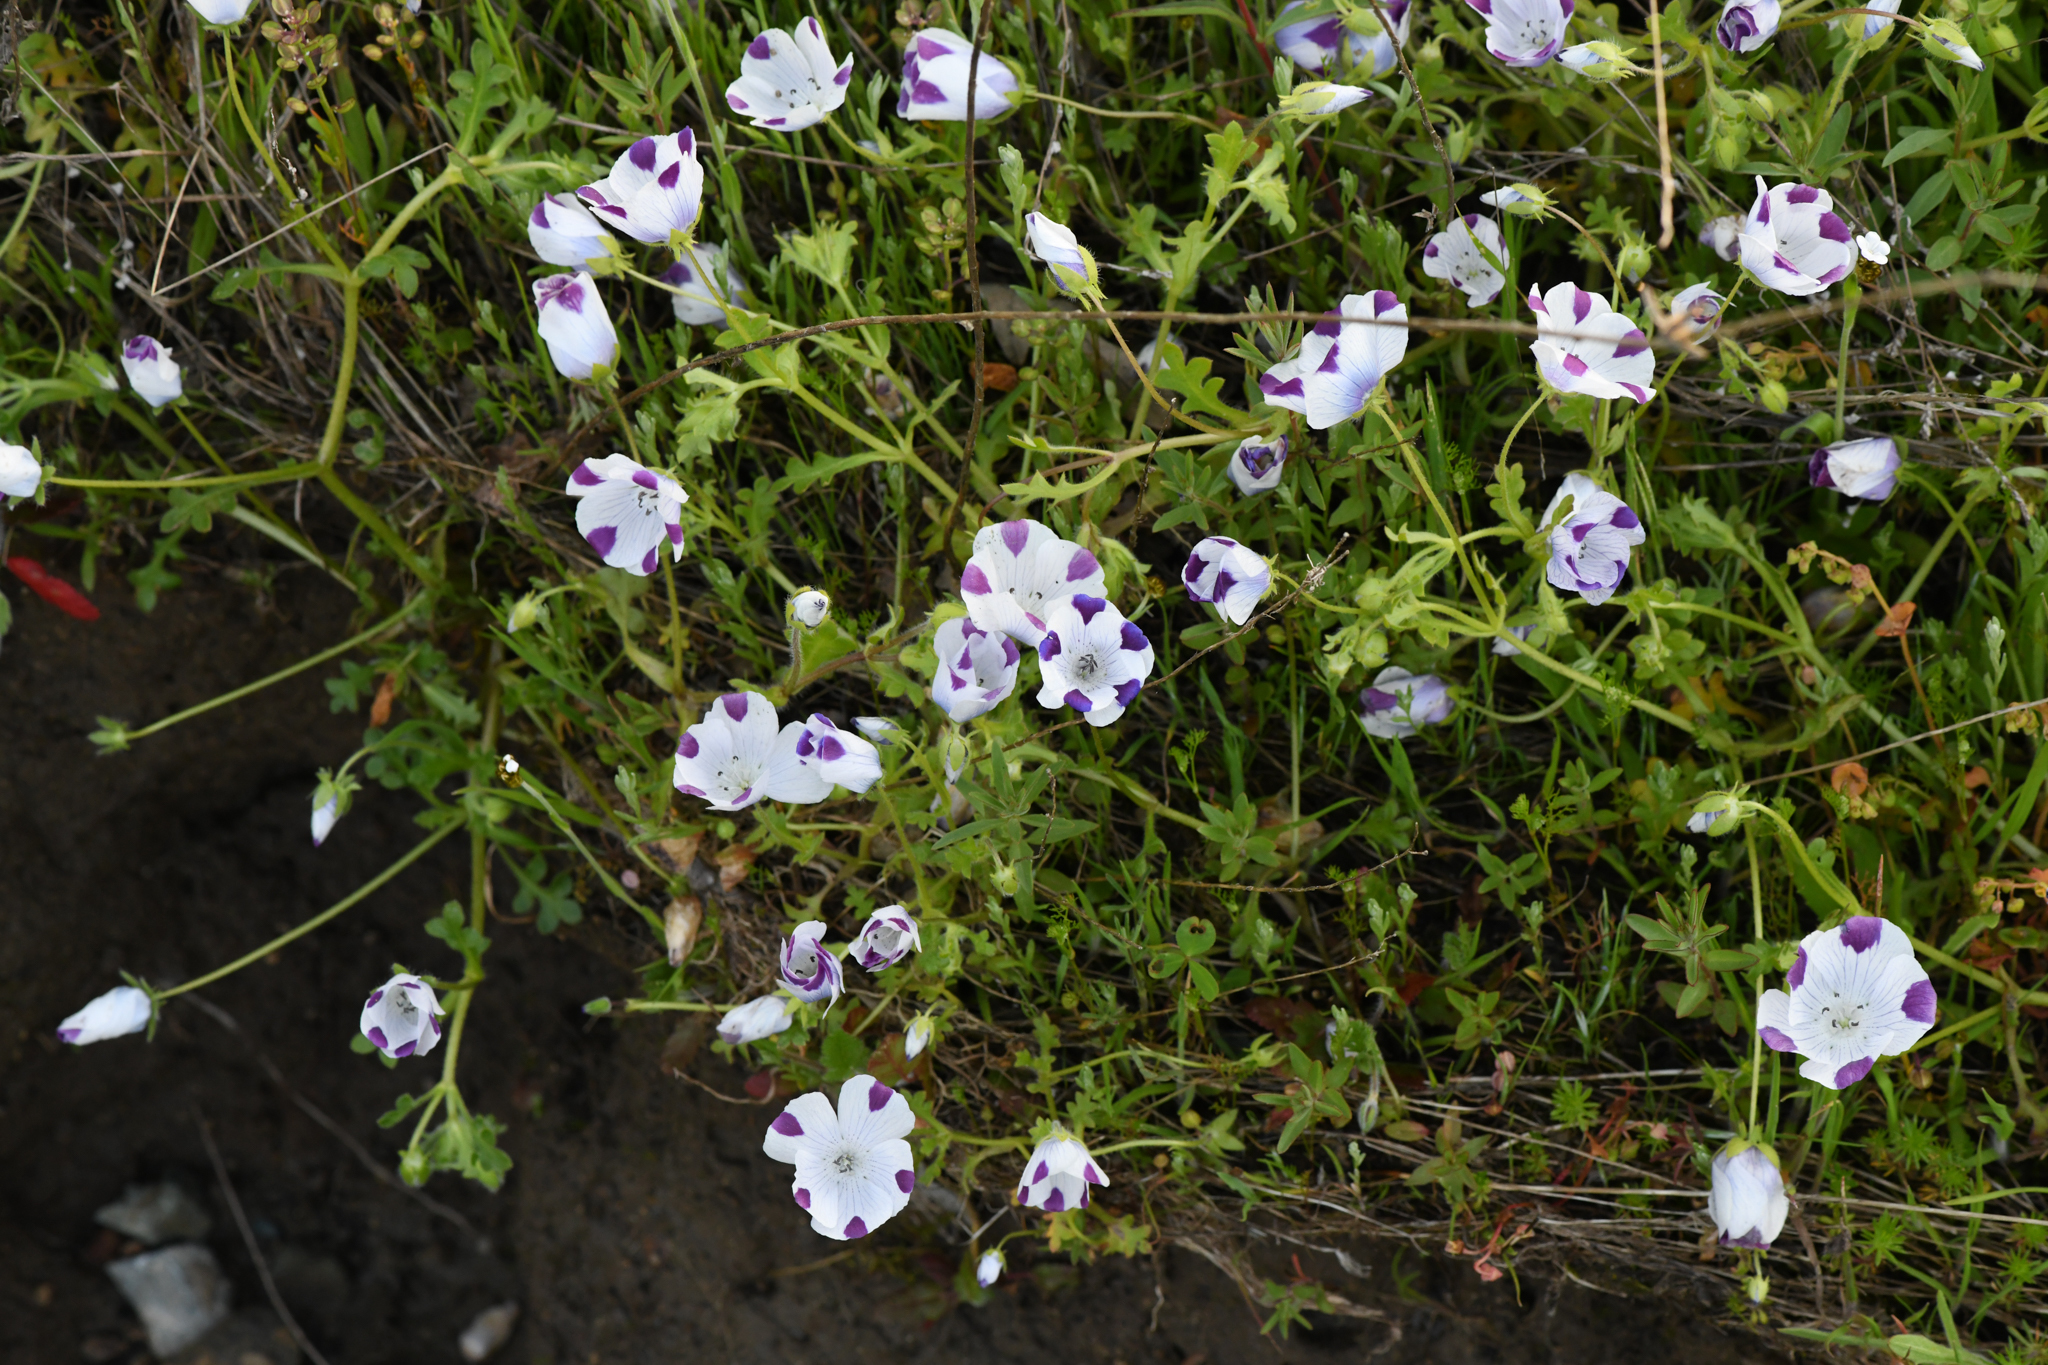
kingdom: Plantae
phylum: Tracheophyta
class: Magnoliopsida
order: Boraginales
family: Hydrophyllaceae
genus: Nemophila
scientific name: Nemophila maculata
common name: Fivespot
